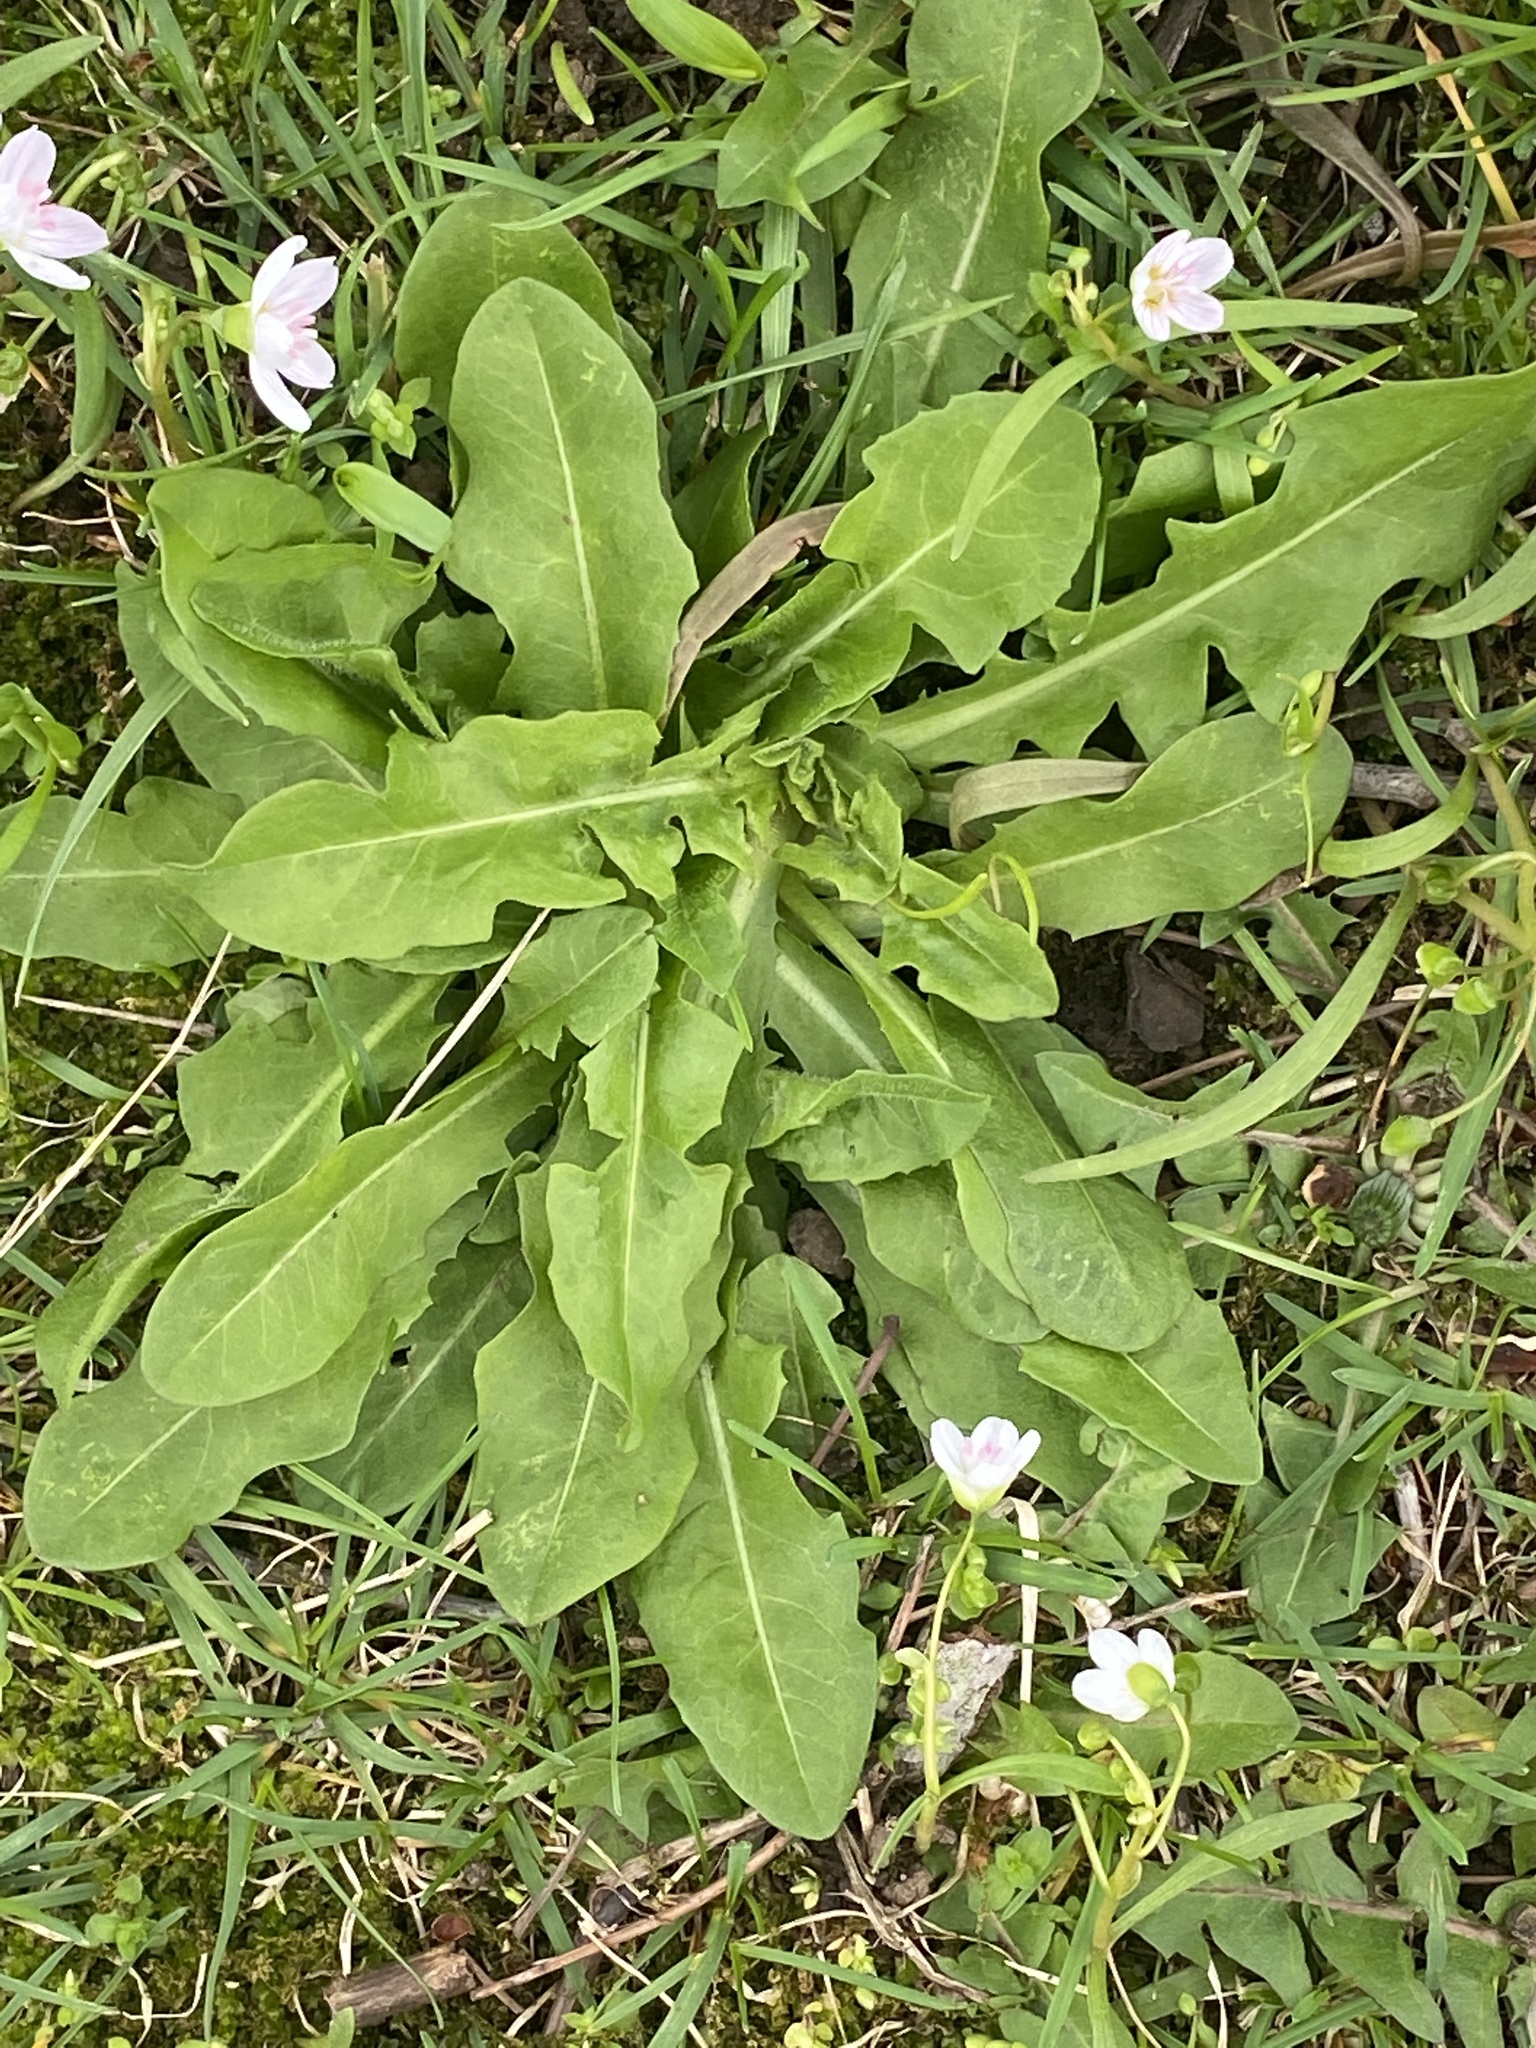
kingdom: Plantae
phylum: Tracheophyta
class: Magnoliopsida
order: Asterales
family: Asteraceae
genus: Cichorium
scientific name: Cichorium intybus
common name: Chicory
